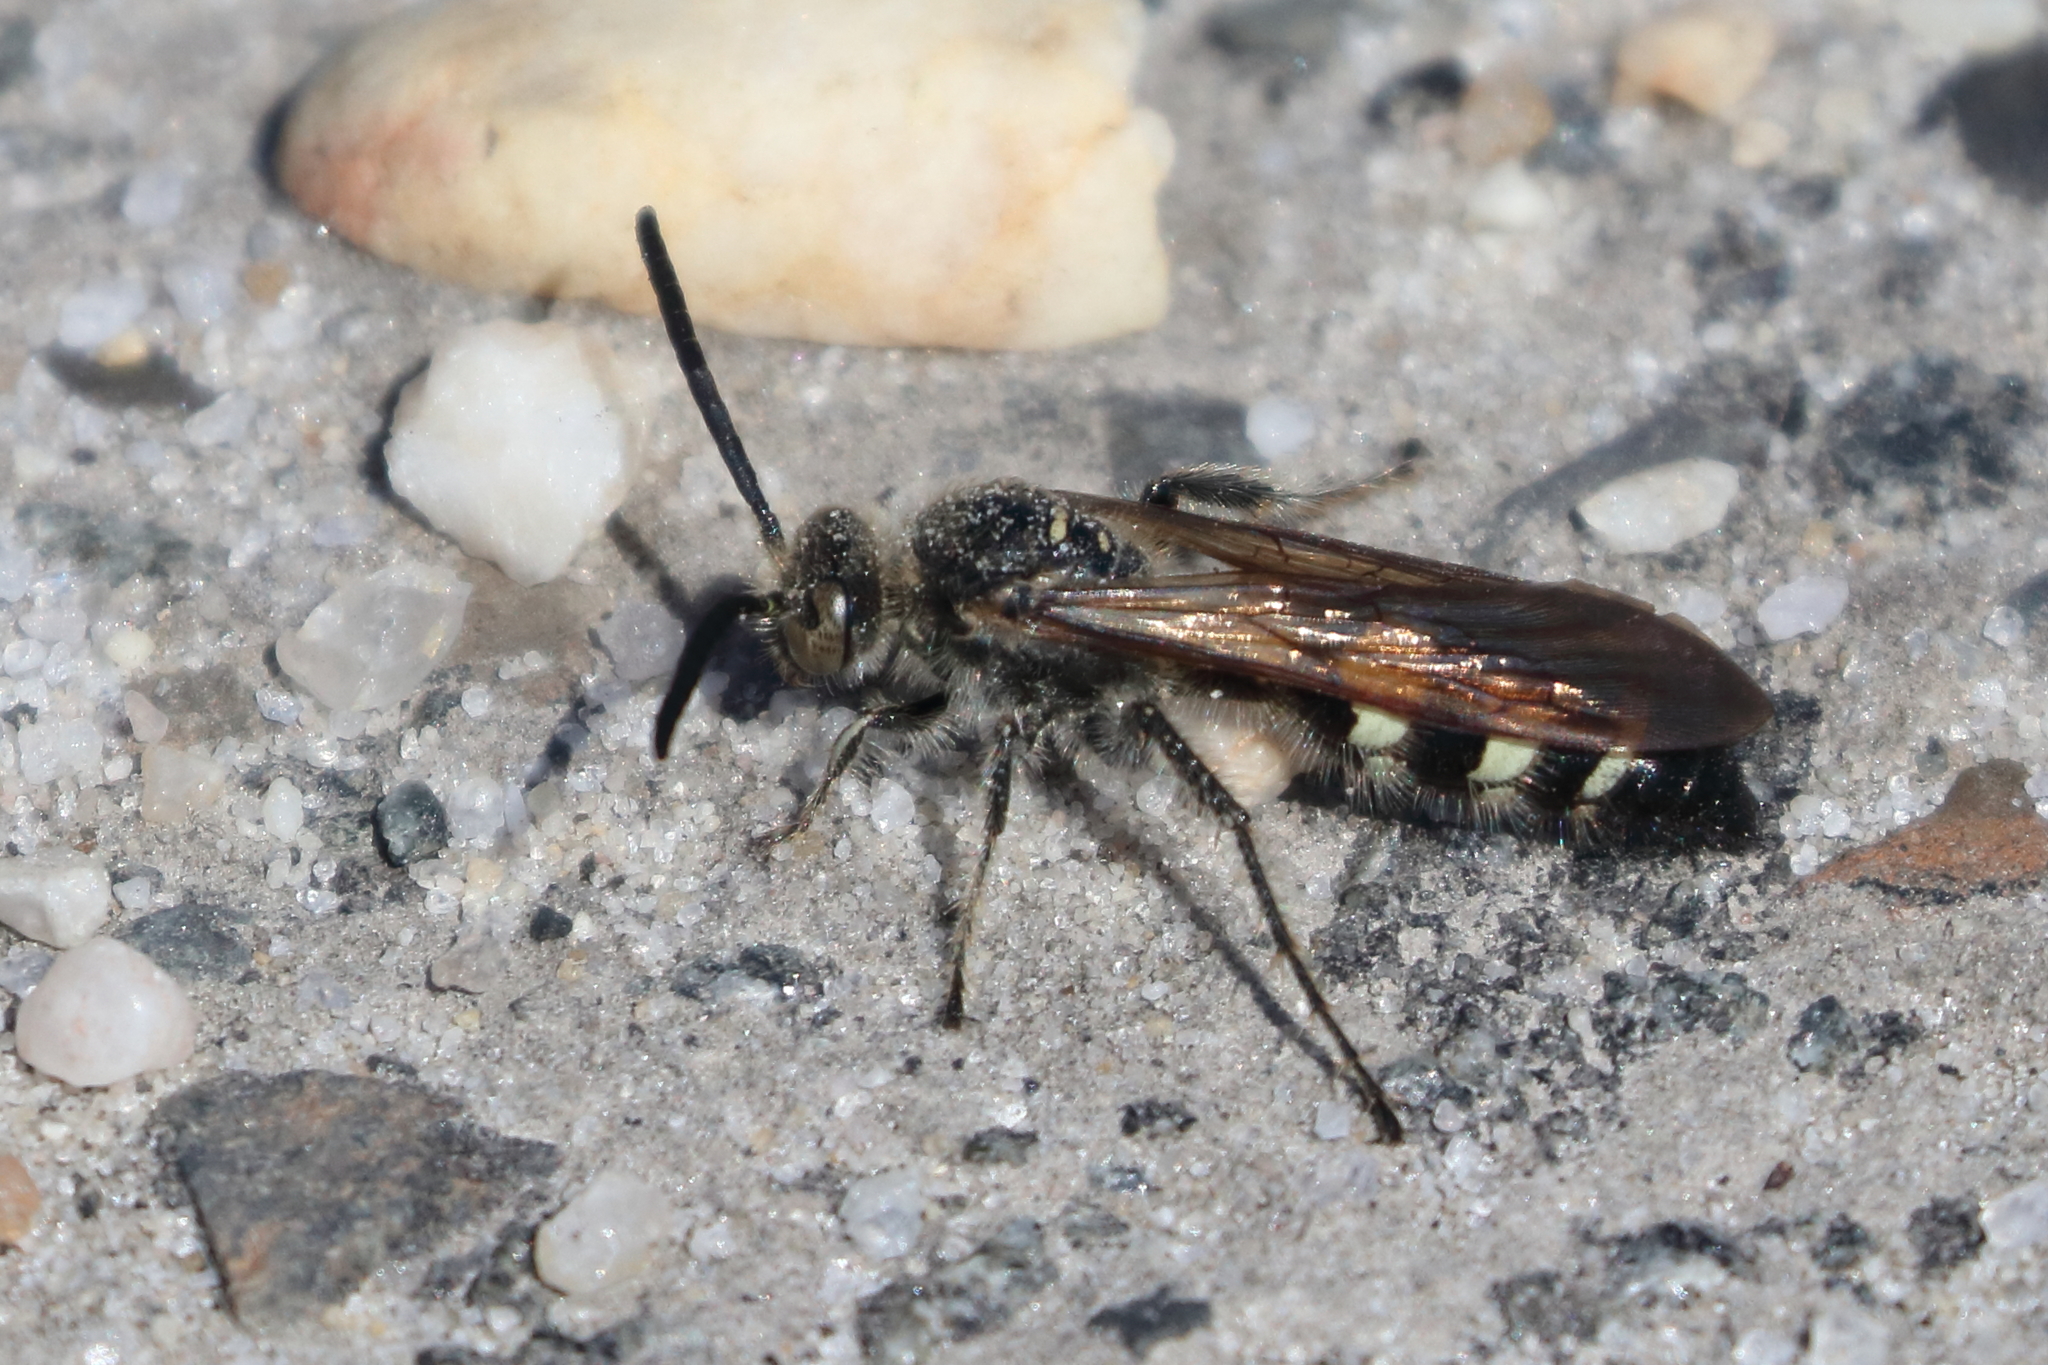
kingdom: Animalia
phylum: Arthropoda
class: Insecta
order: Hymenoptera
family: Scoliidae
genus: Dielis
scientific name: Dielis
